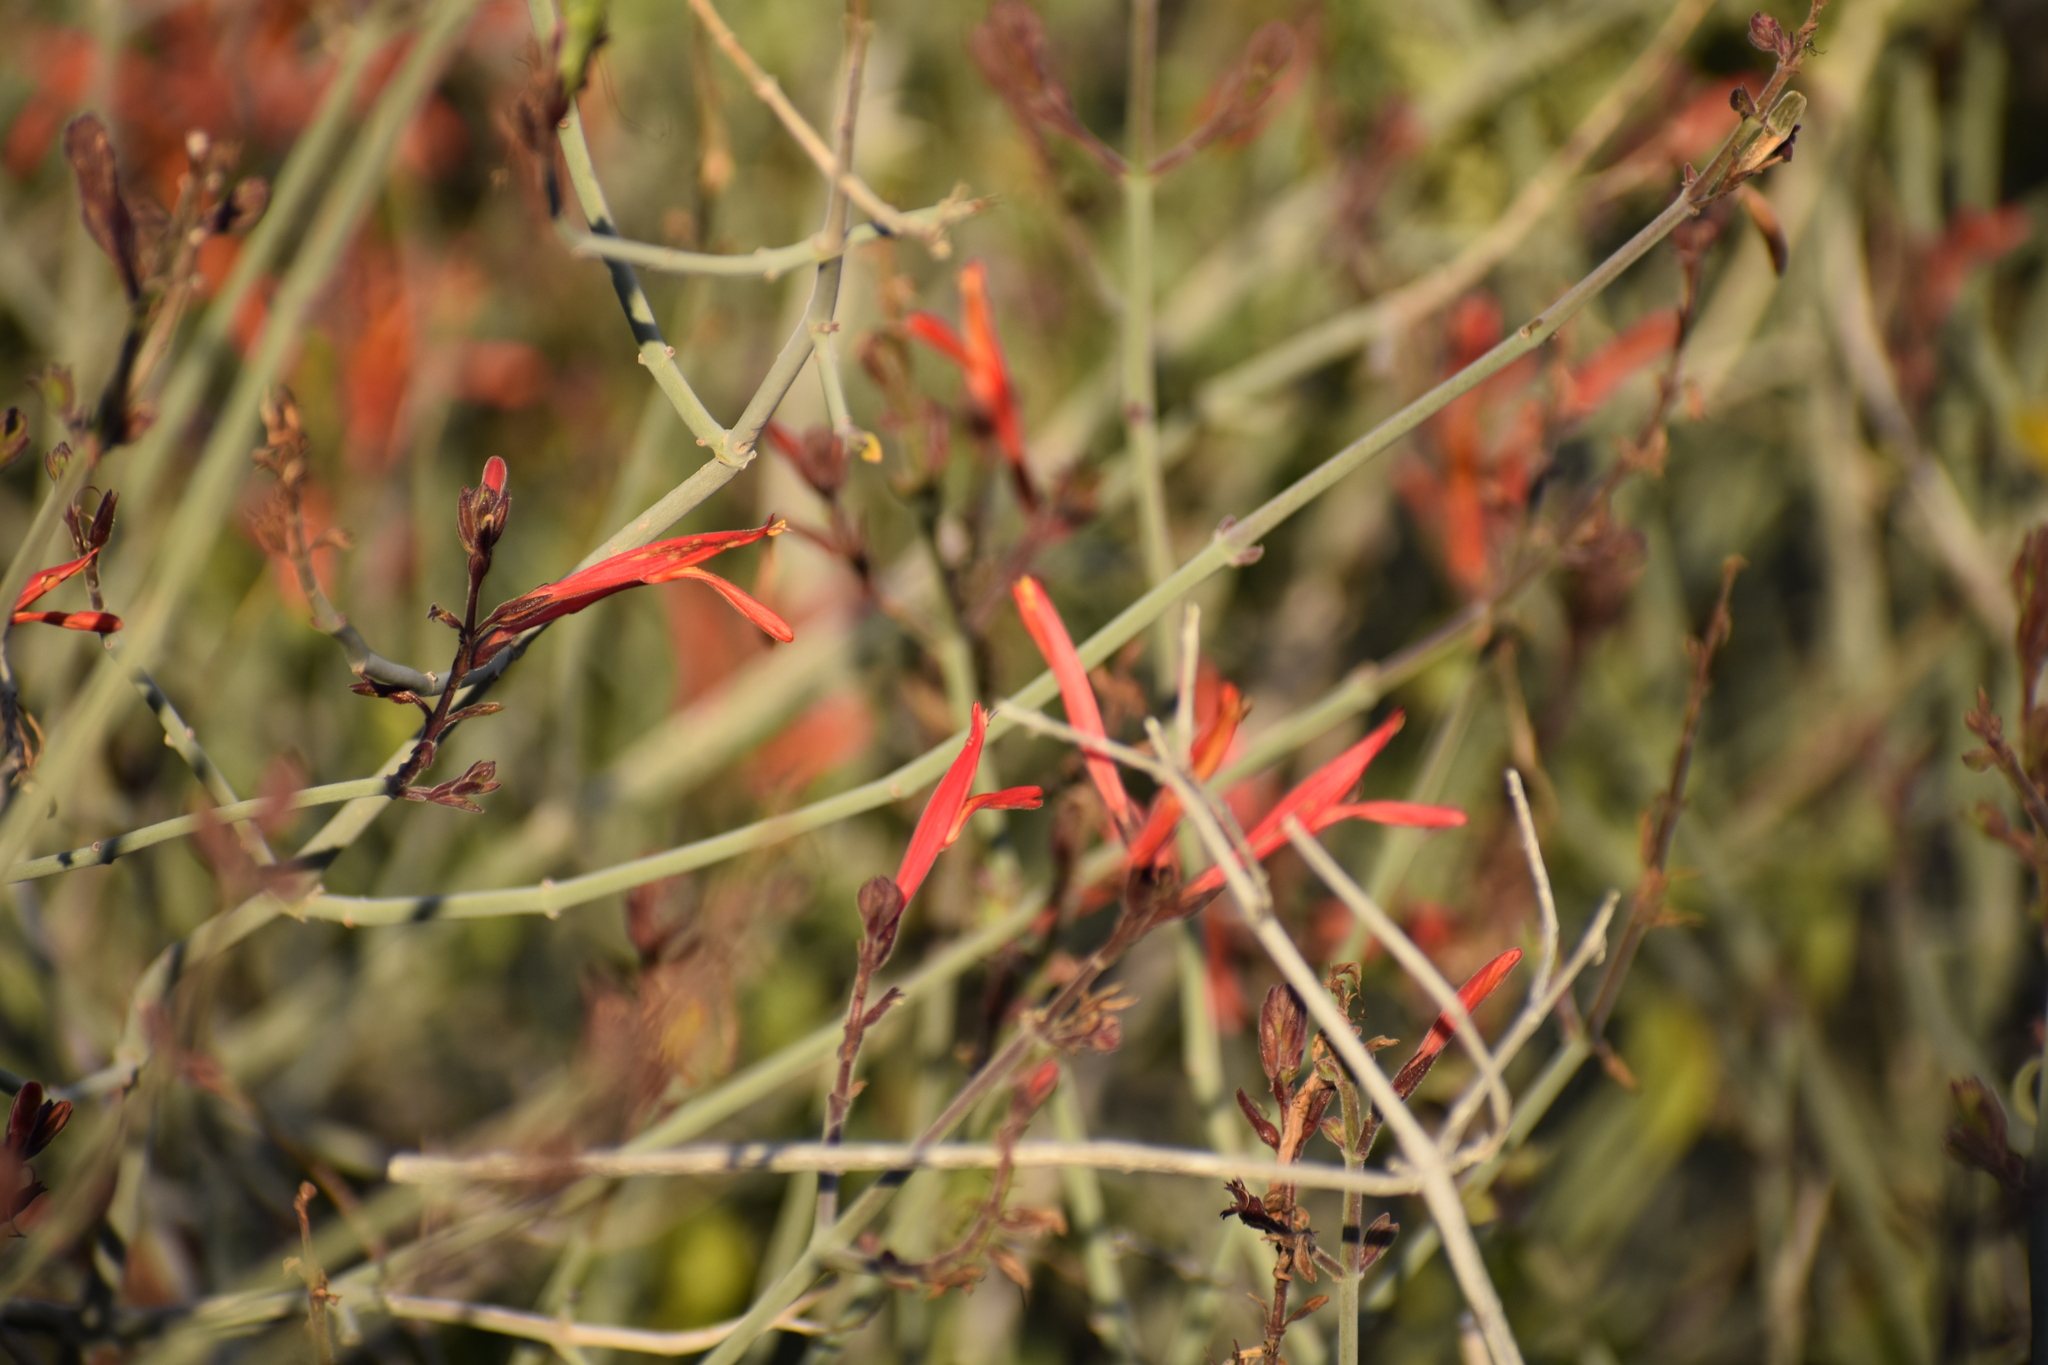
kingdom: Plantae
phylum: Tracheophyta
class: Magnoliopsida
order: Lamiales
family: Acanthaceae
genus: Justicia
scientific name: Justicia californica
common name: Chuparosa-honeysuckle
